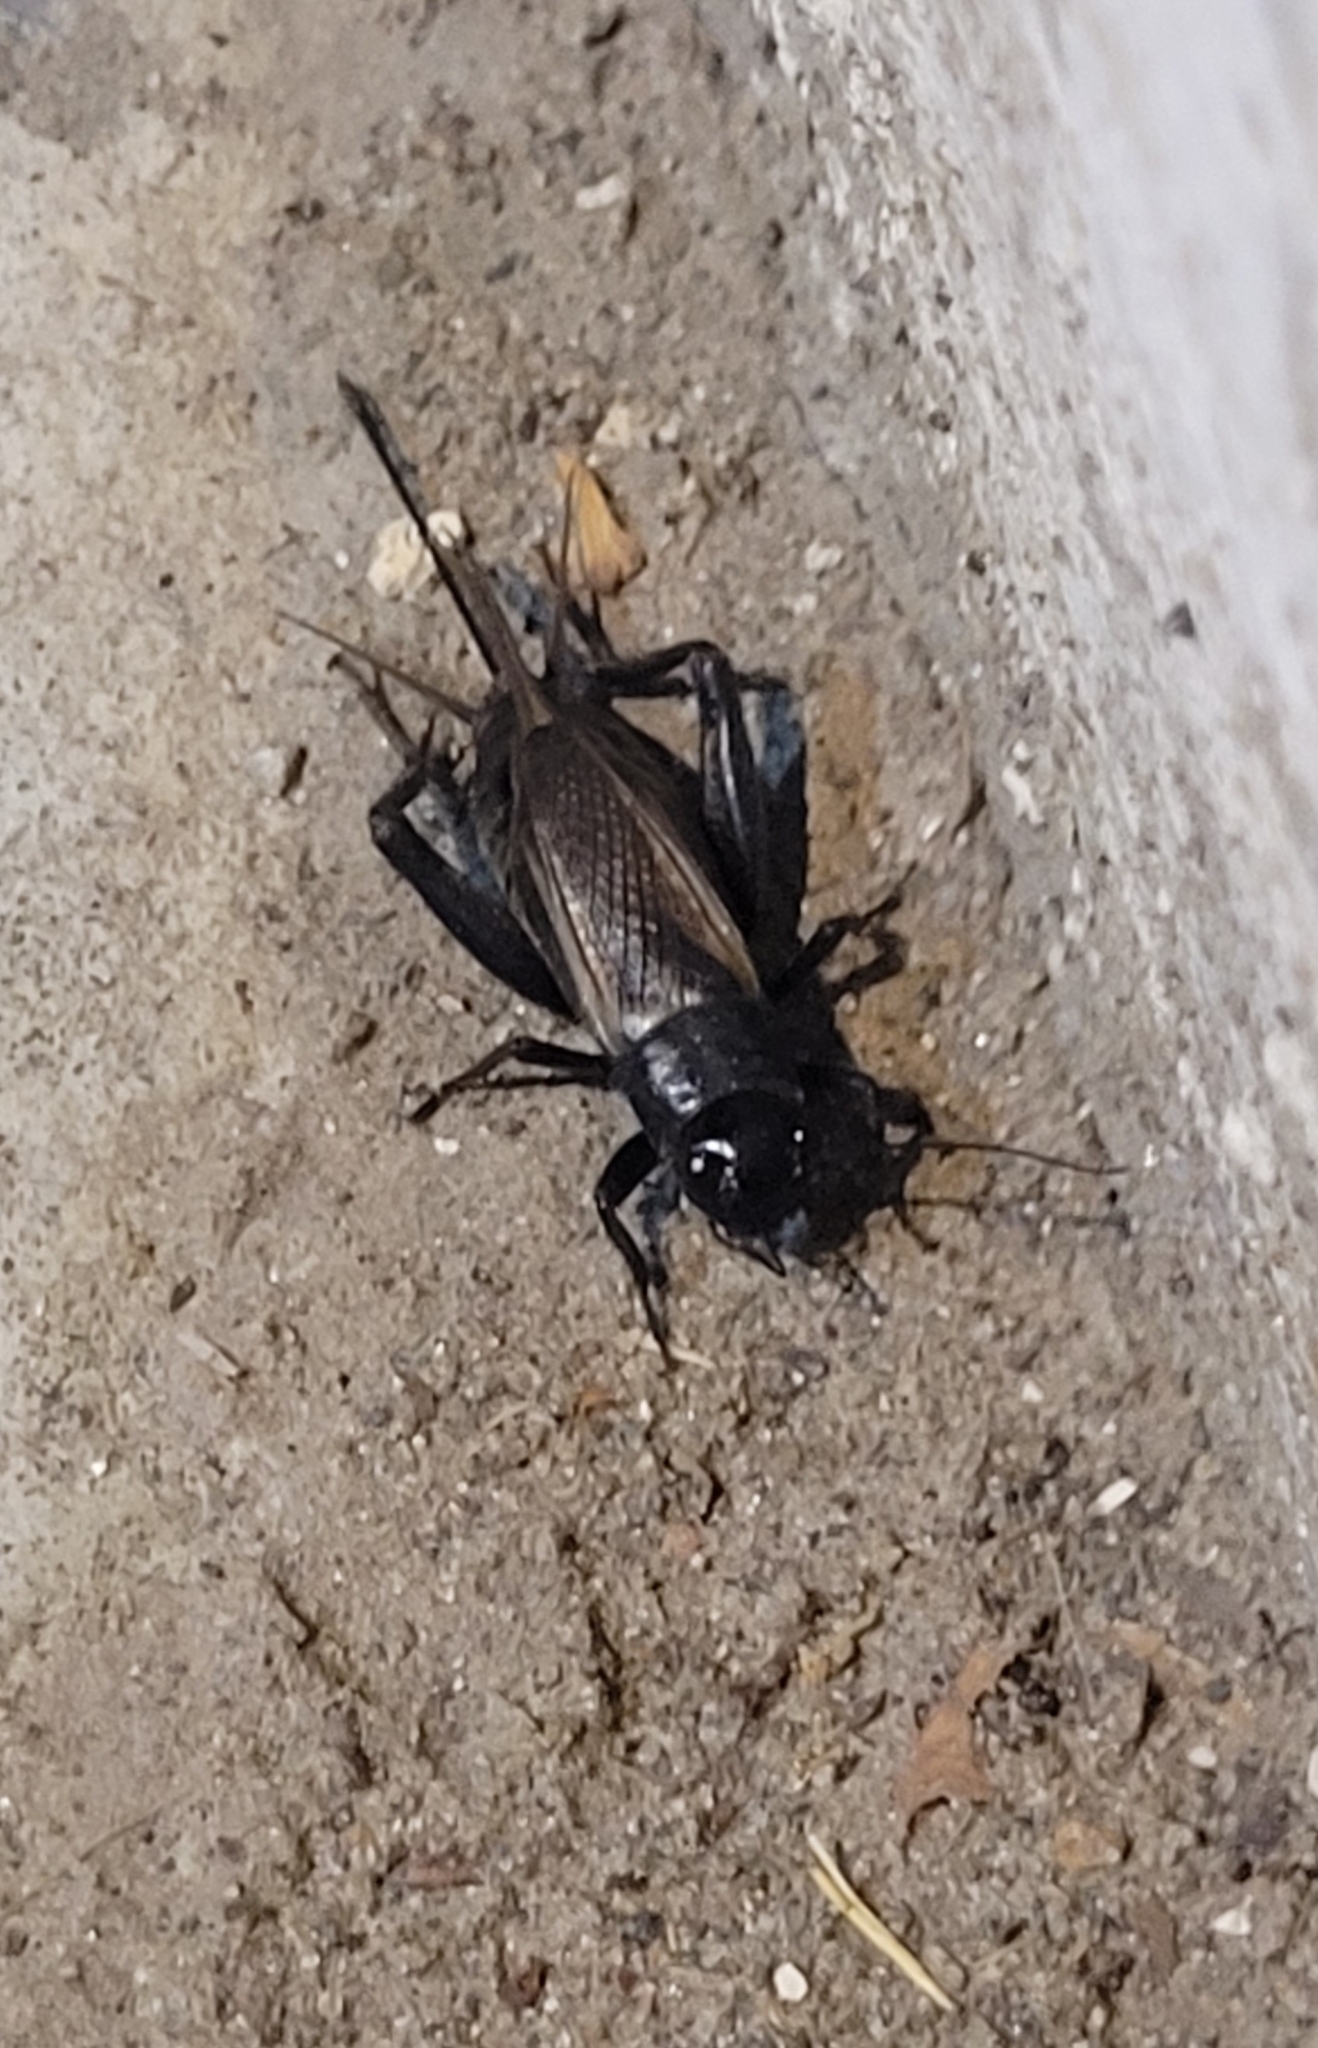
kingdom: Animalia
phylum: Arthropoda
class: Insecta
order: Orthoptera
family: Gryllidae
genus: Gryllus
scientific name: Gryllus campestris
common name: Field cricket
